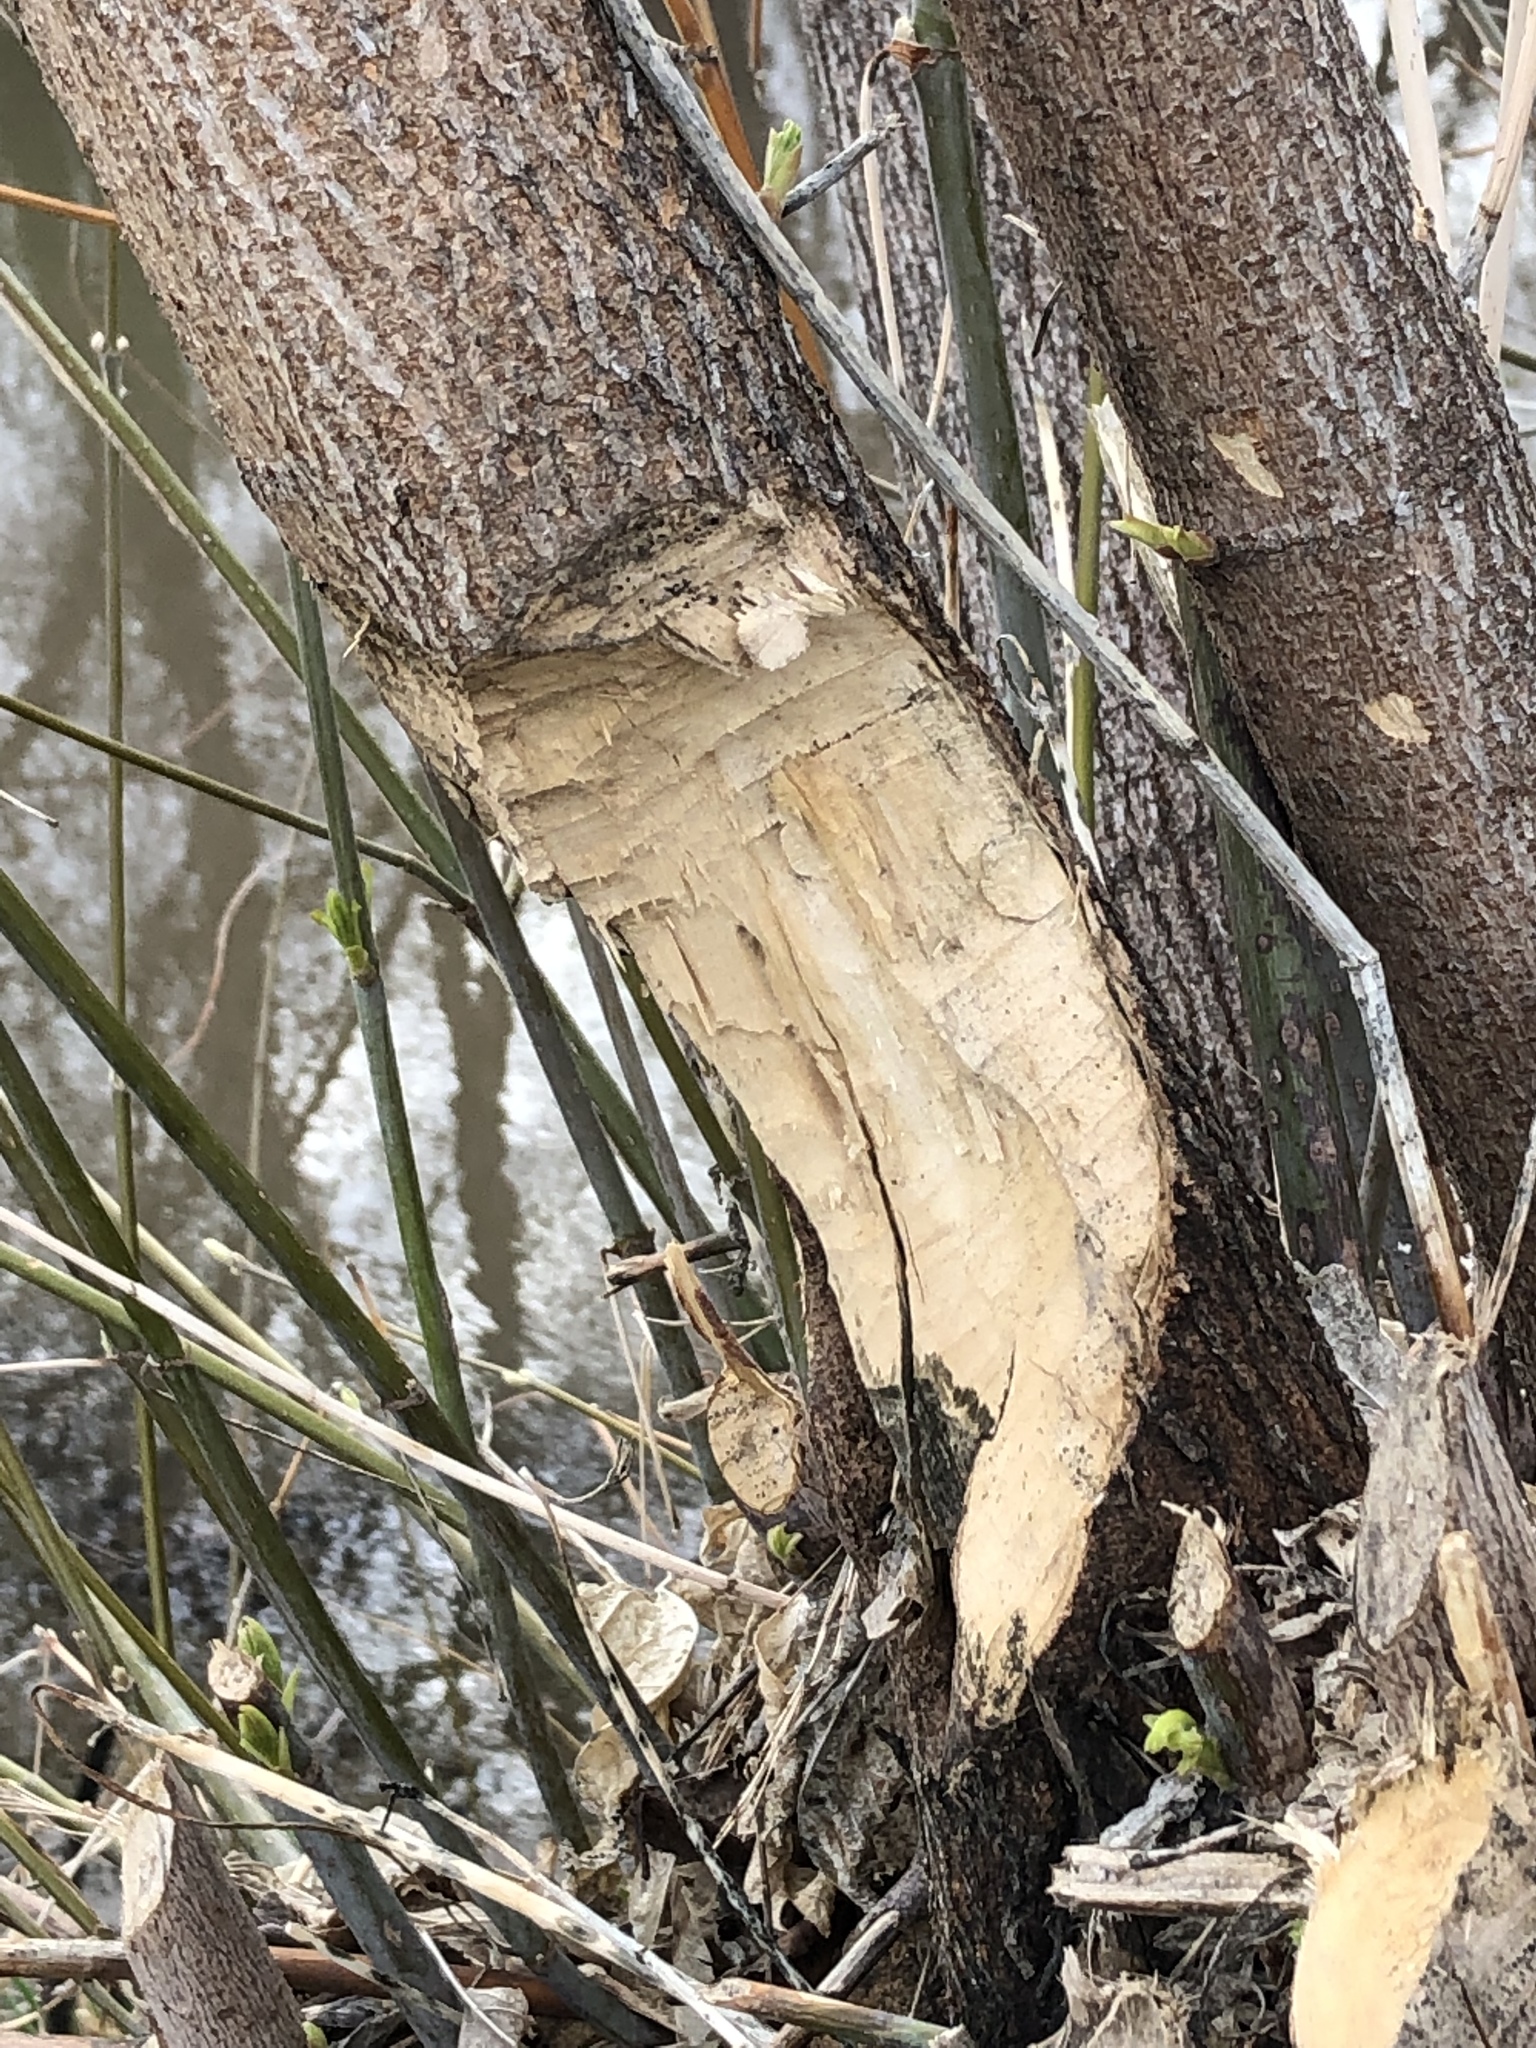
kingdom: Animalia
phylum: Chordata
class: Mammalia
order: Rodentia
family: Castoridae
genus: Castor
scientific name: Castor canadensis
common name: American beaver
